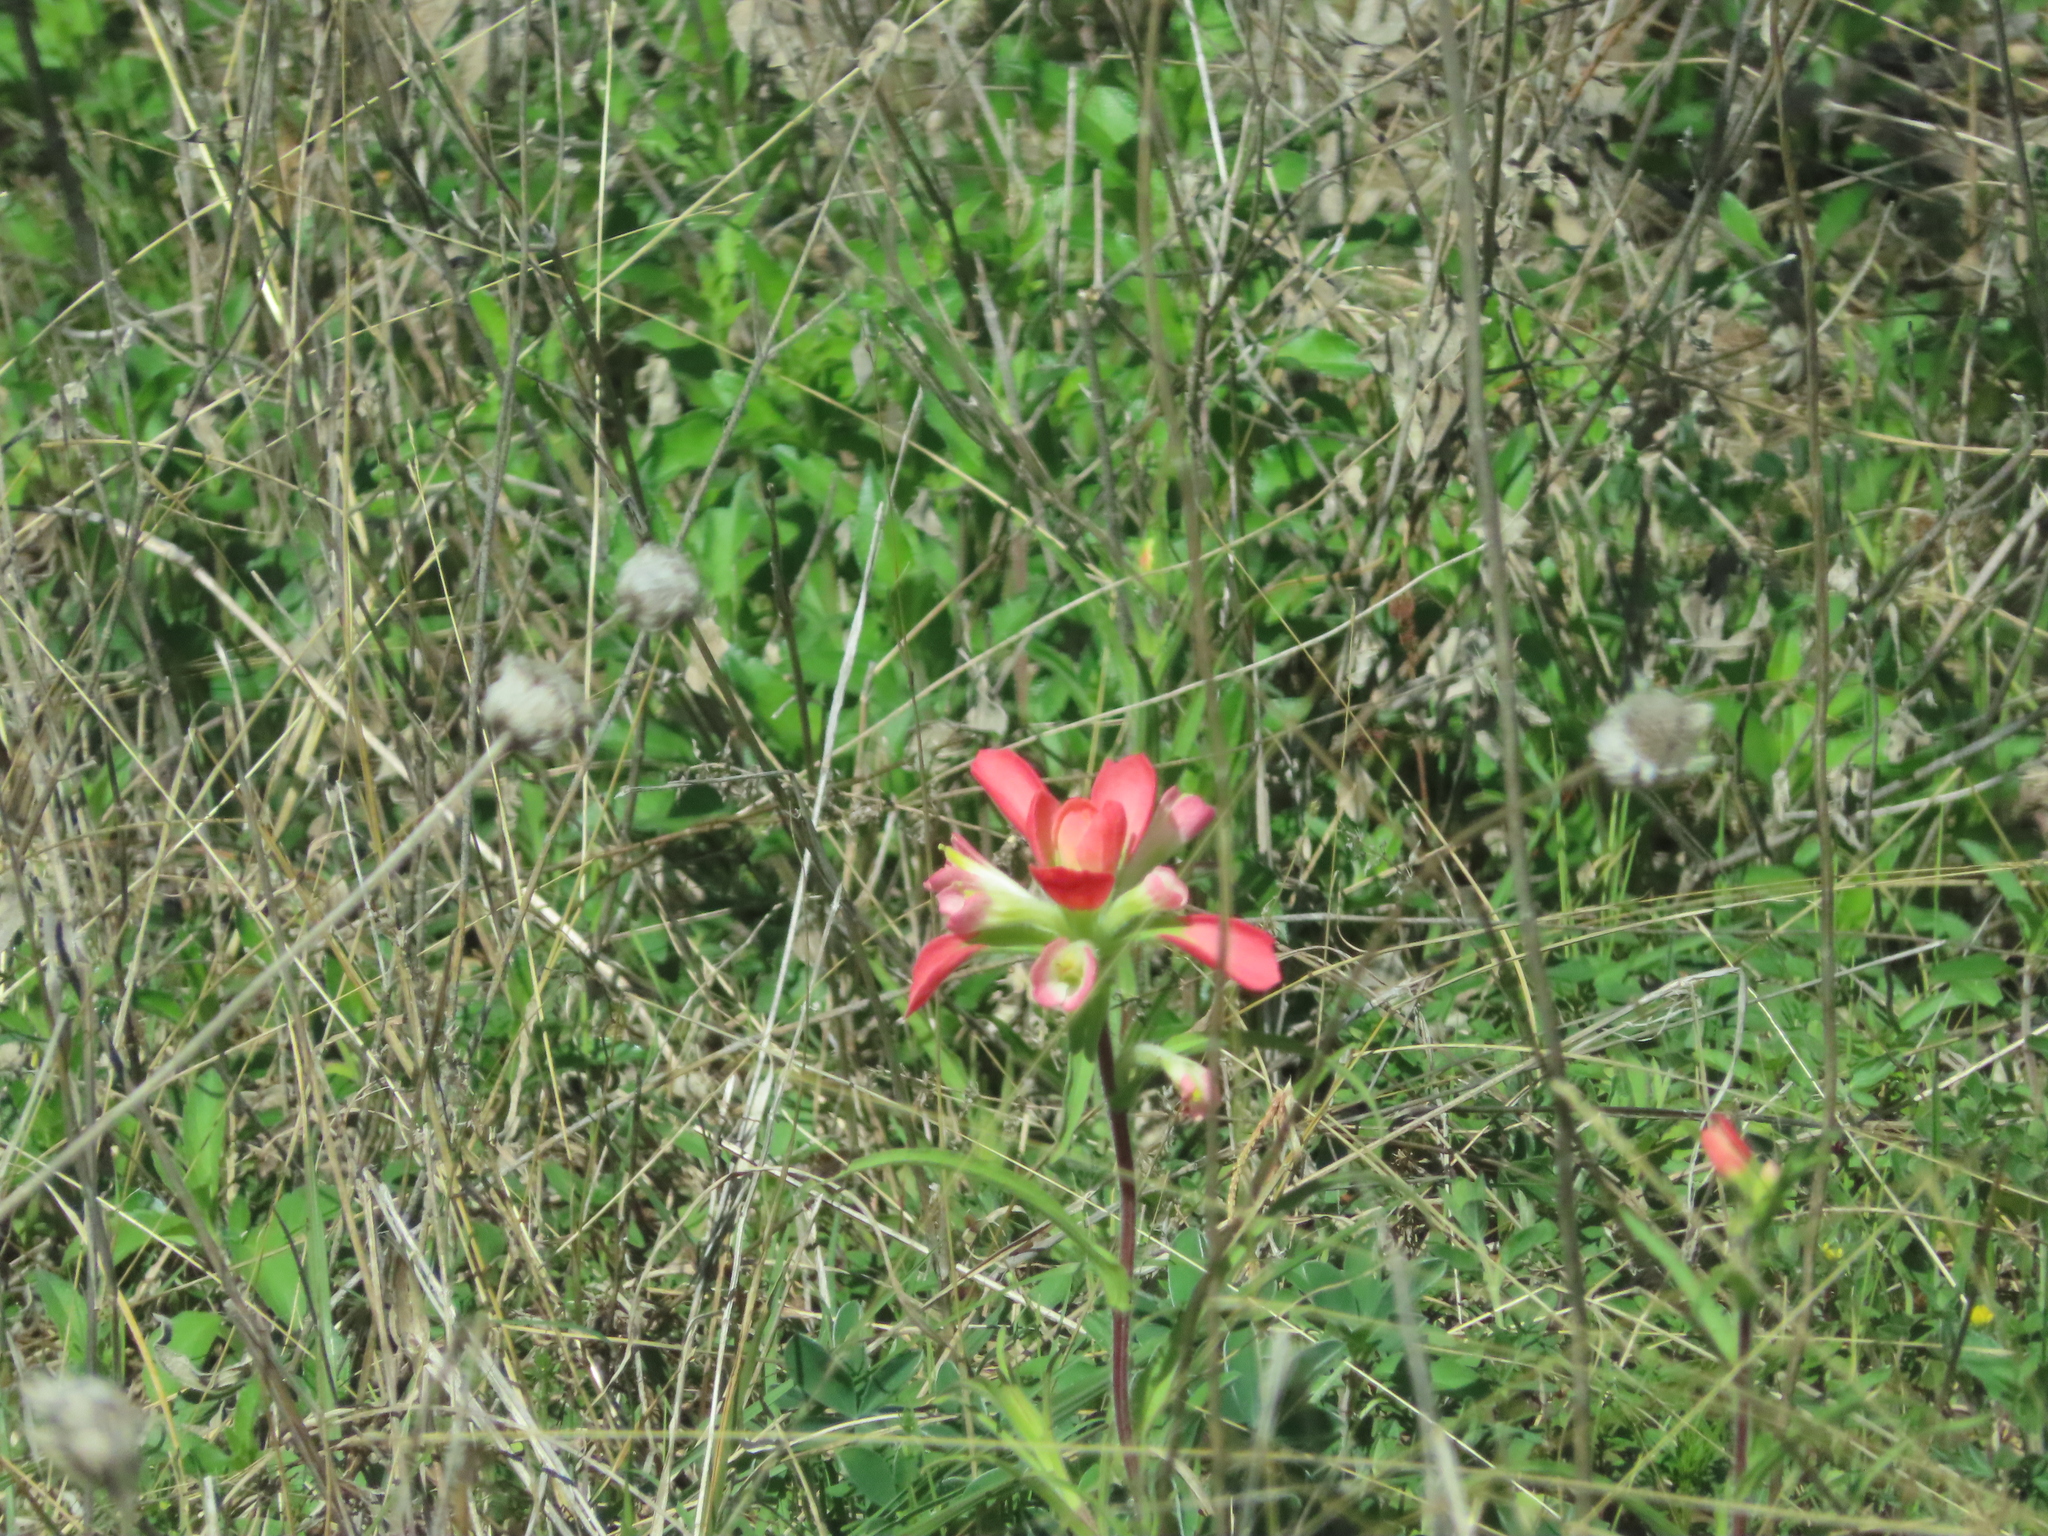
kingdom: Plantae
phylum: Tracheophyta
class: Magnoliopsida
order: Lamiales
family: Orobanchaceae
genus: Castilleja
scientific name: Castilleja indivisa
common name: Texas paintbrush
